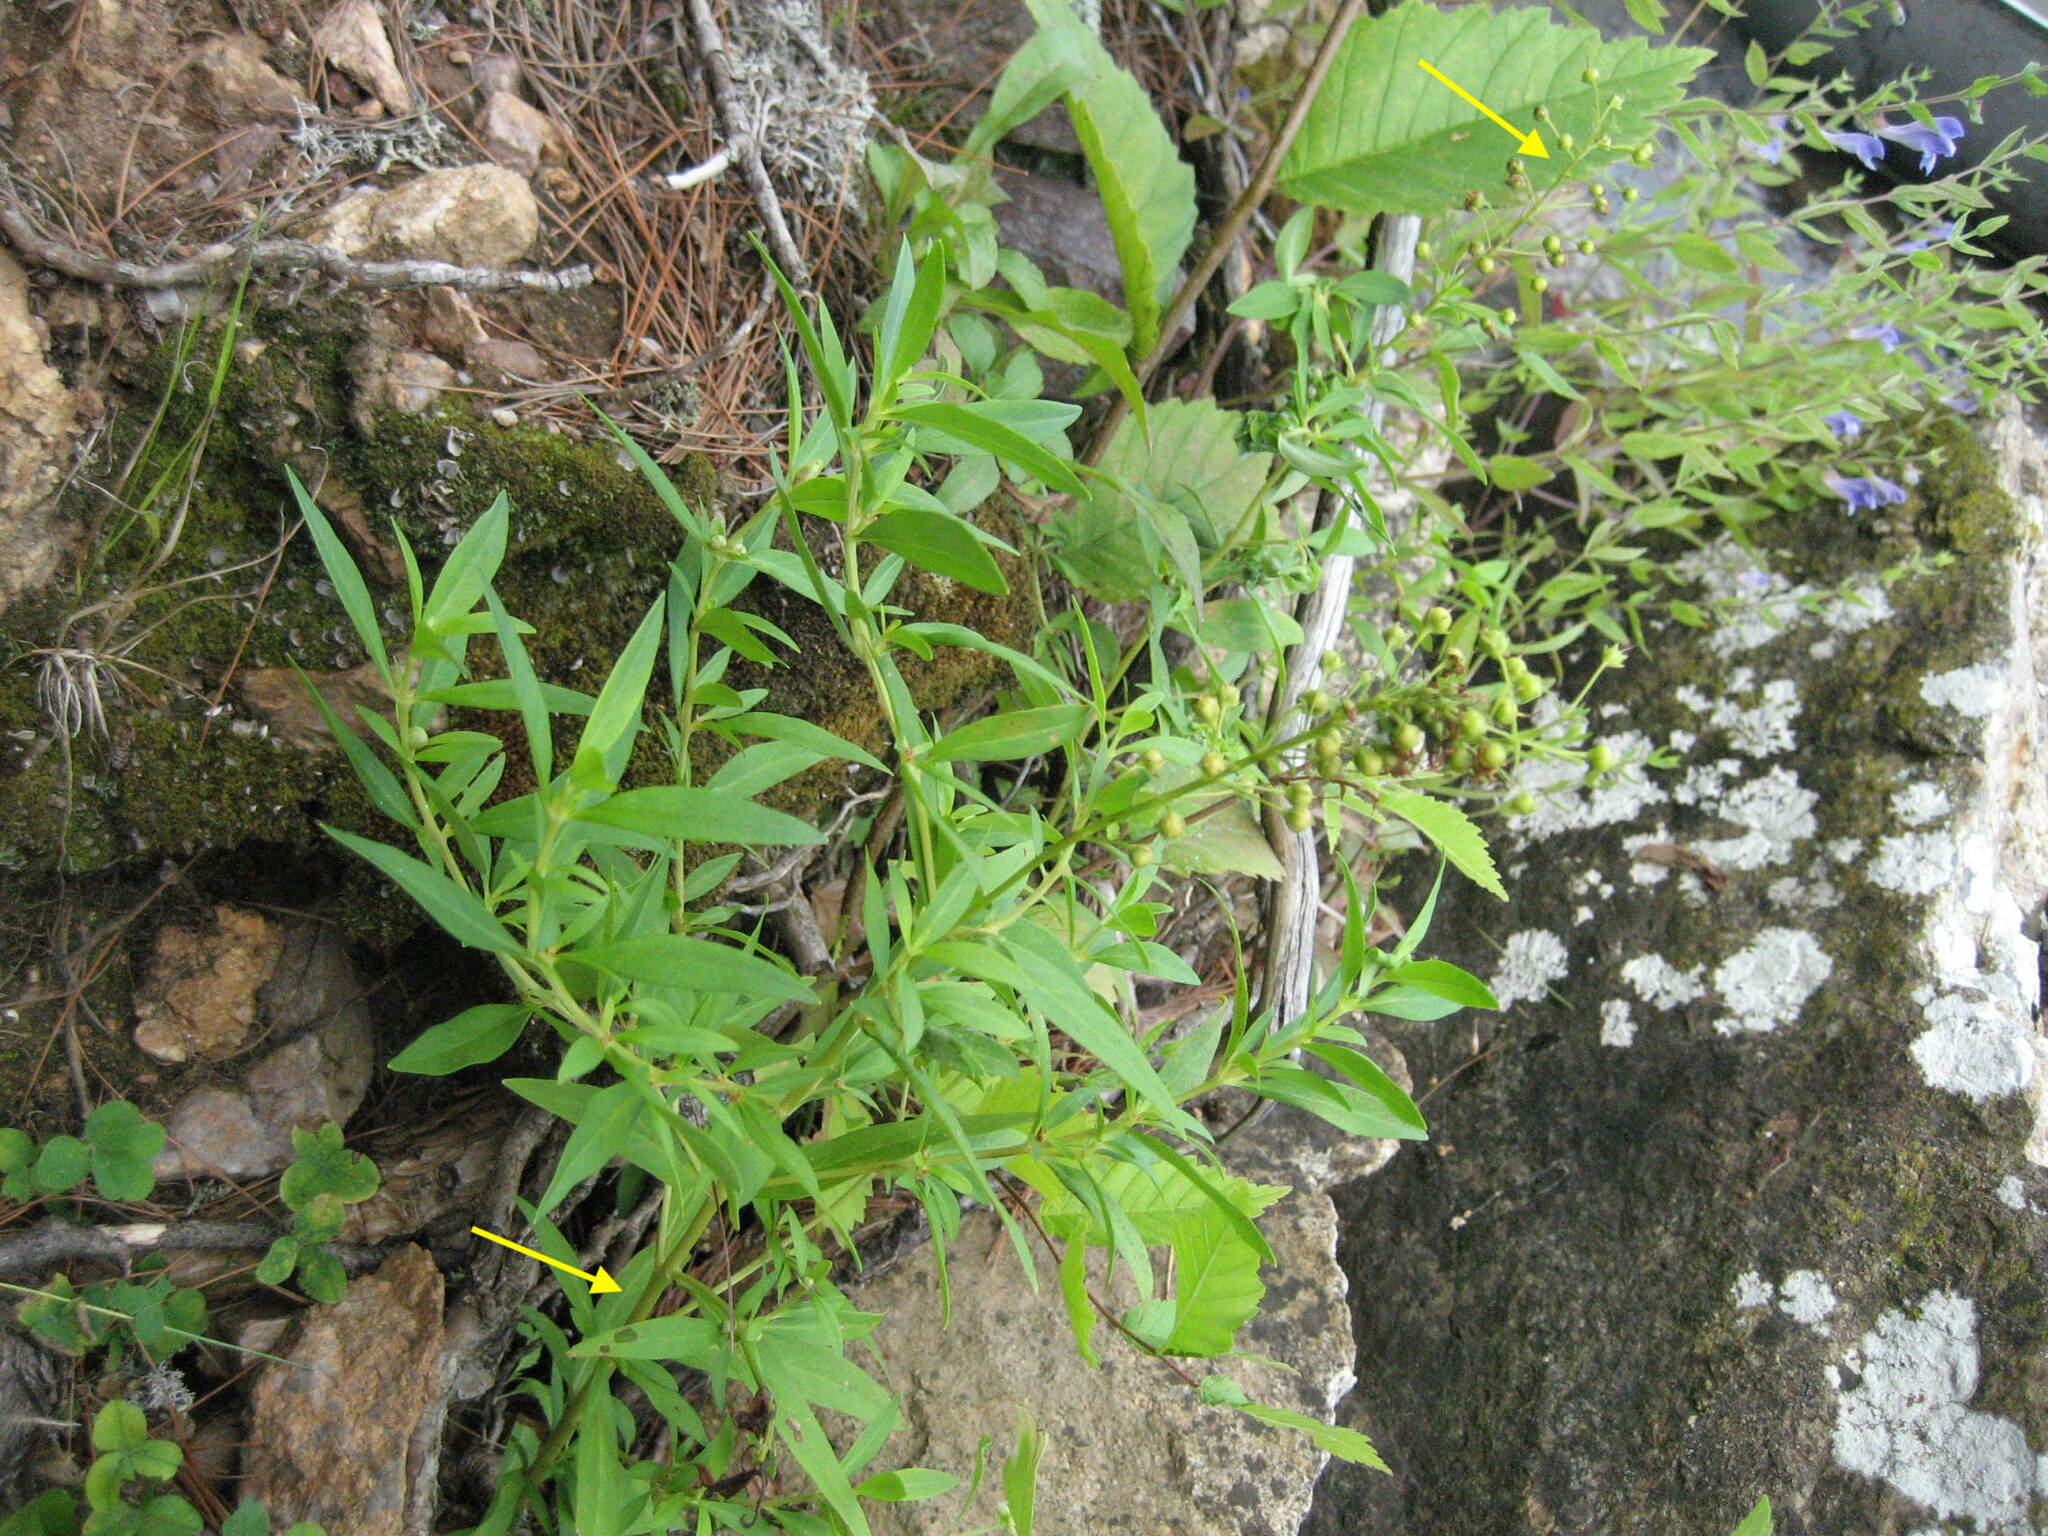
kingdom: Plantae
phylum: Tracheophyta
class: Magnoliopsida
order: Ericales
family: Primulaceae
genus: Lysimachia
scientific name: Lysimachia terrestris
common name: Lake loosestrife
